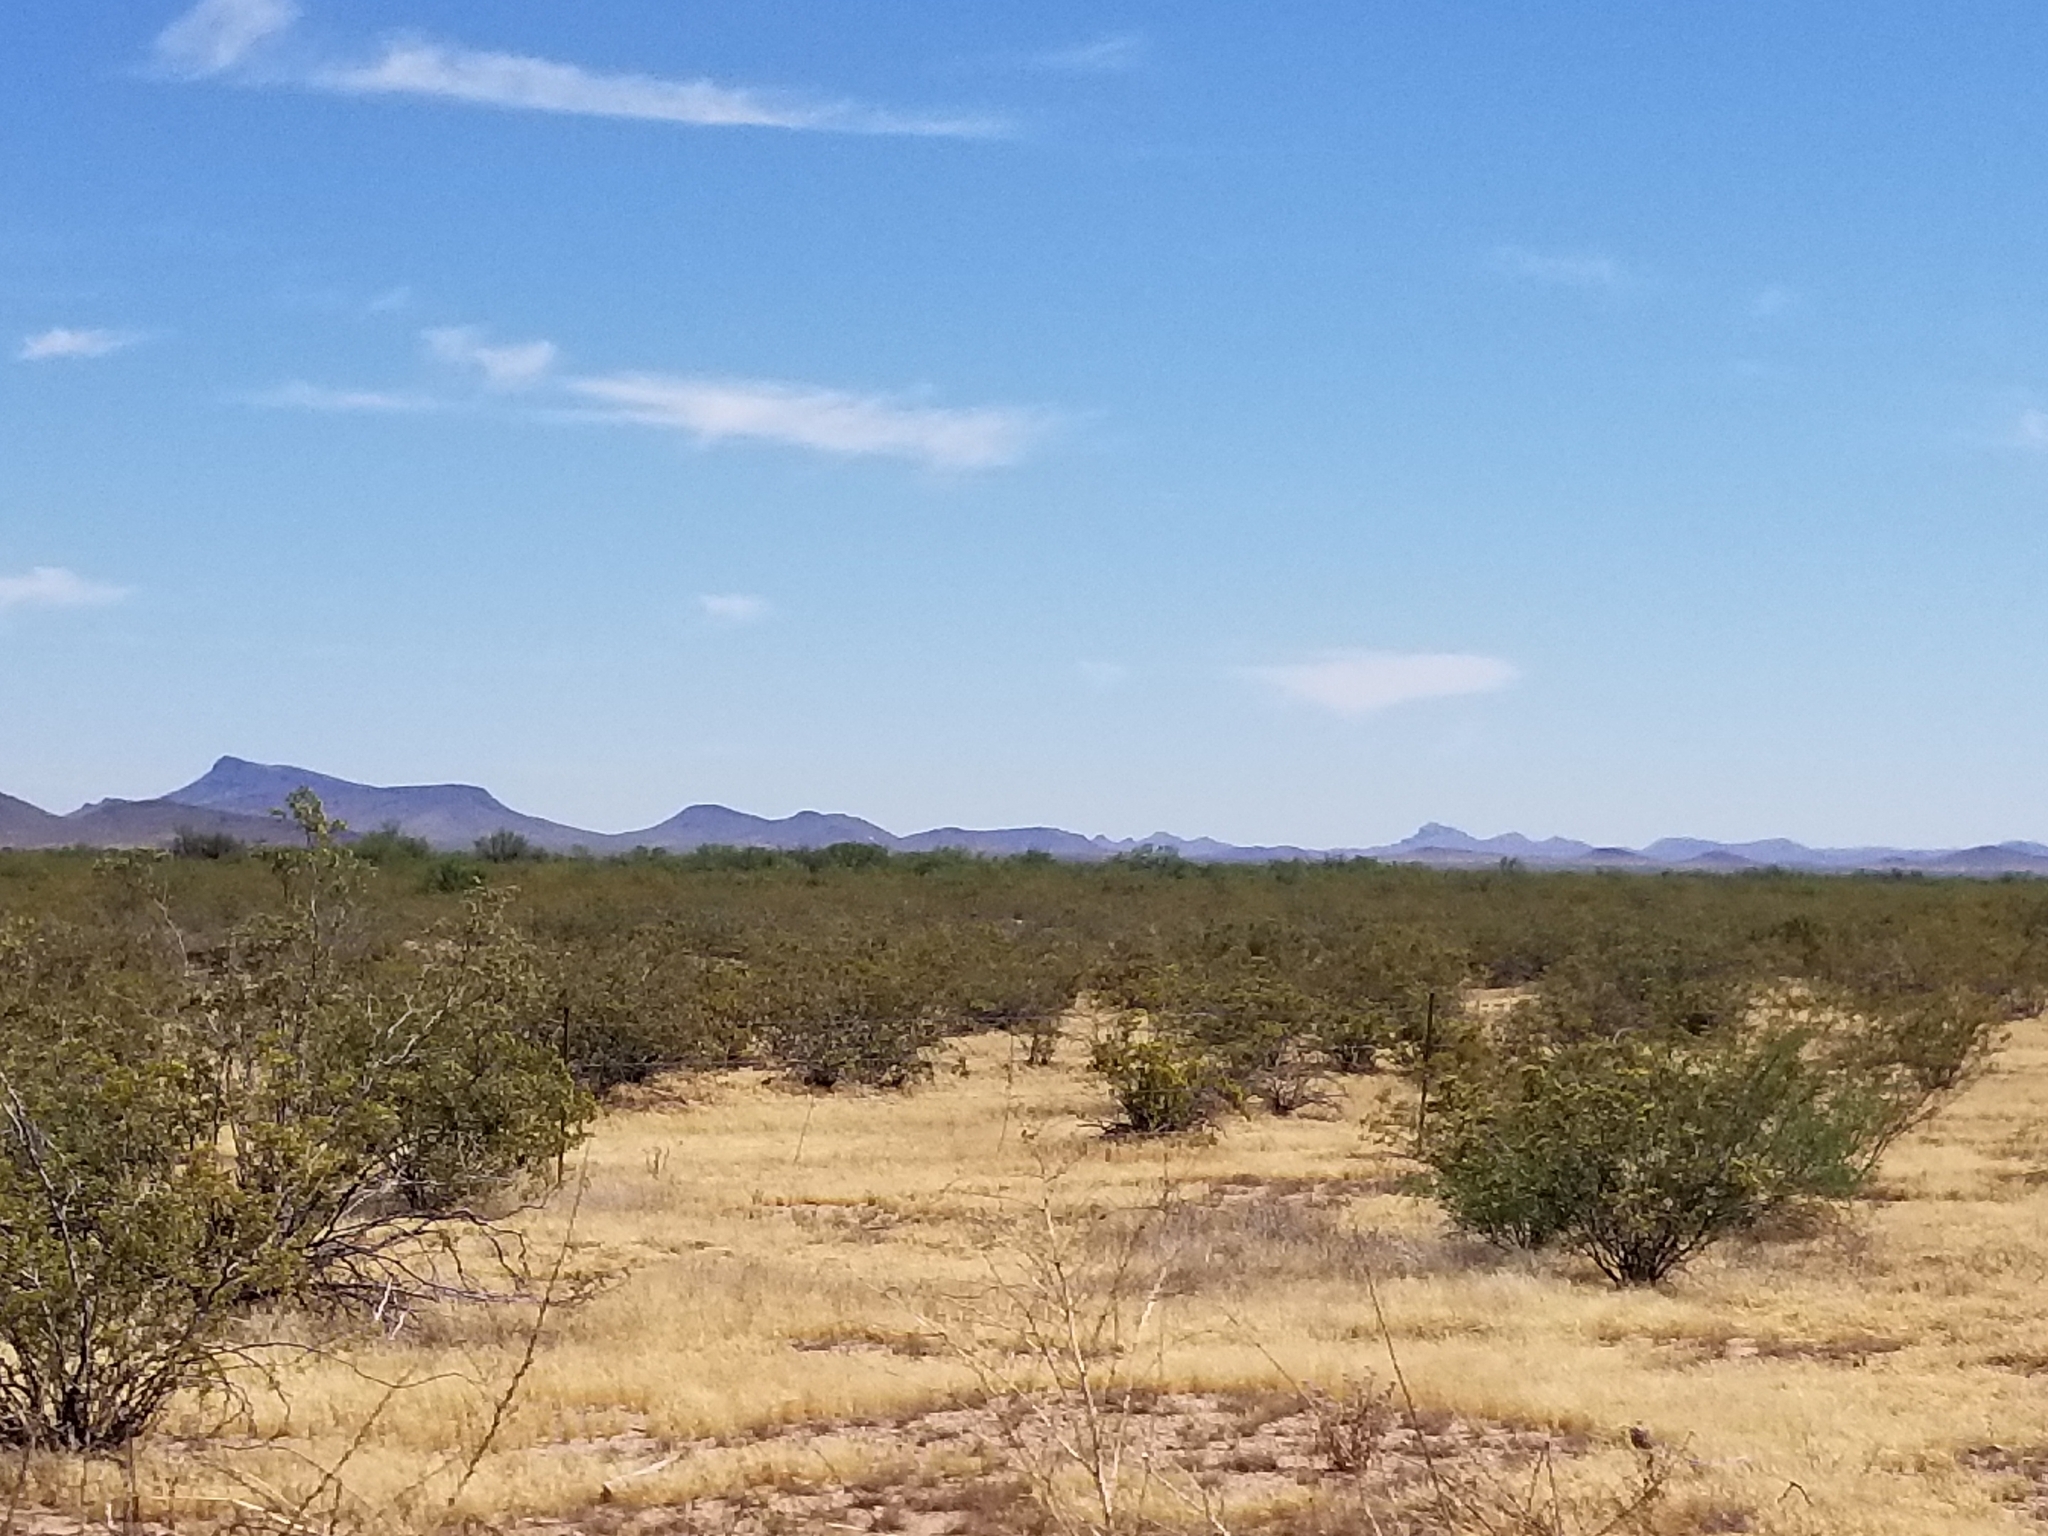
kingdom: Plantae
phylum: Tracheophyta
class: Magnoliopsida
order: Zygophyllales
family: Zygophyllaceae
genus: Larrea
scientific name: Larrea tridentata
